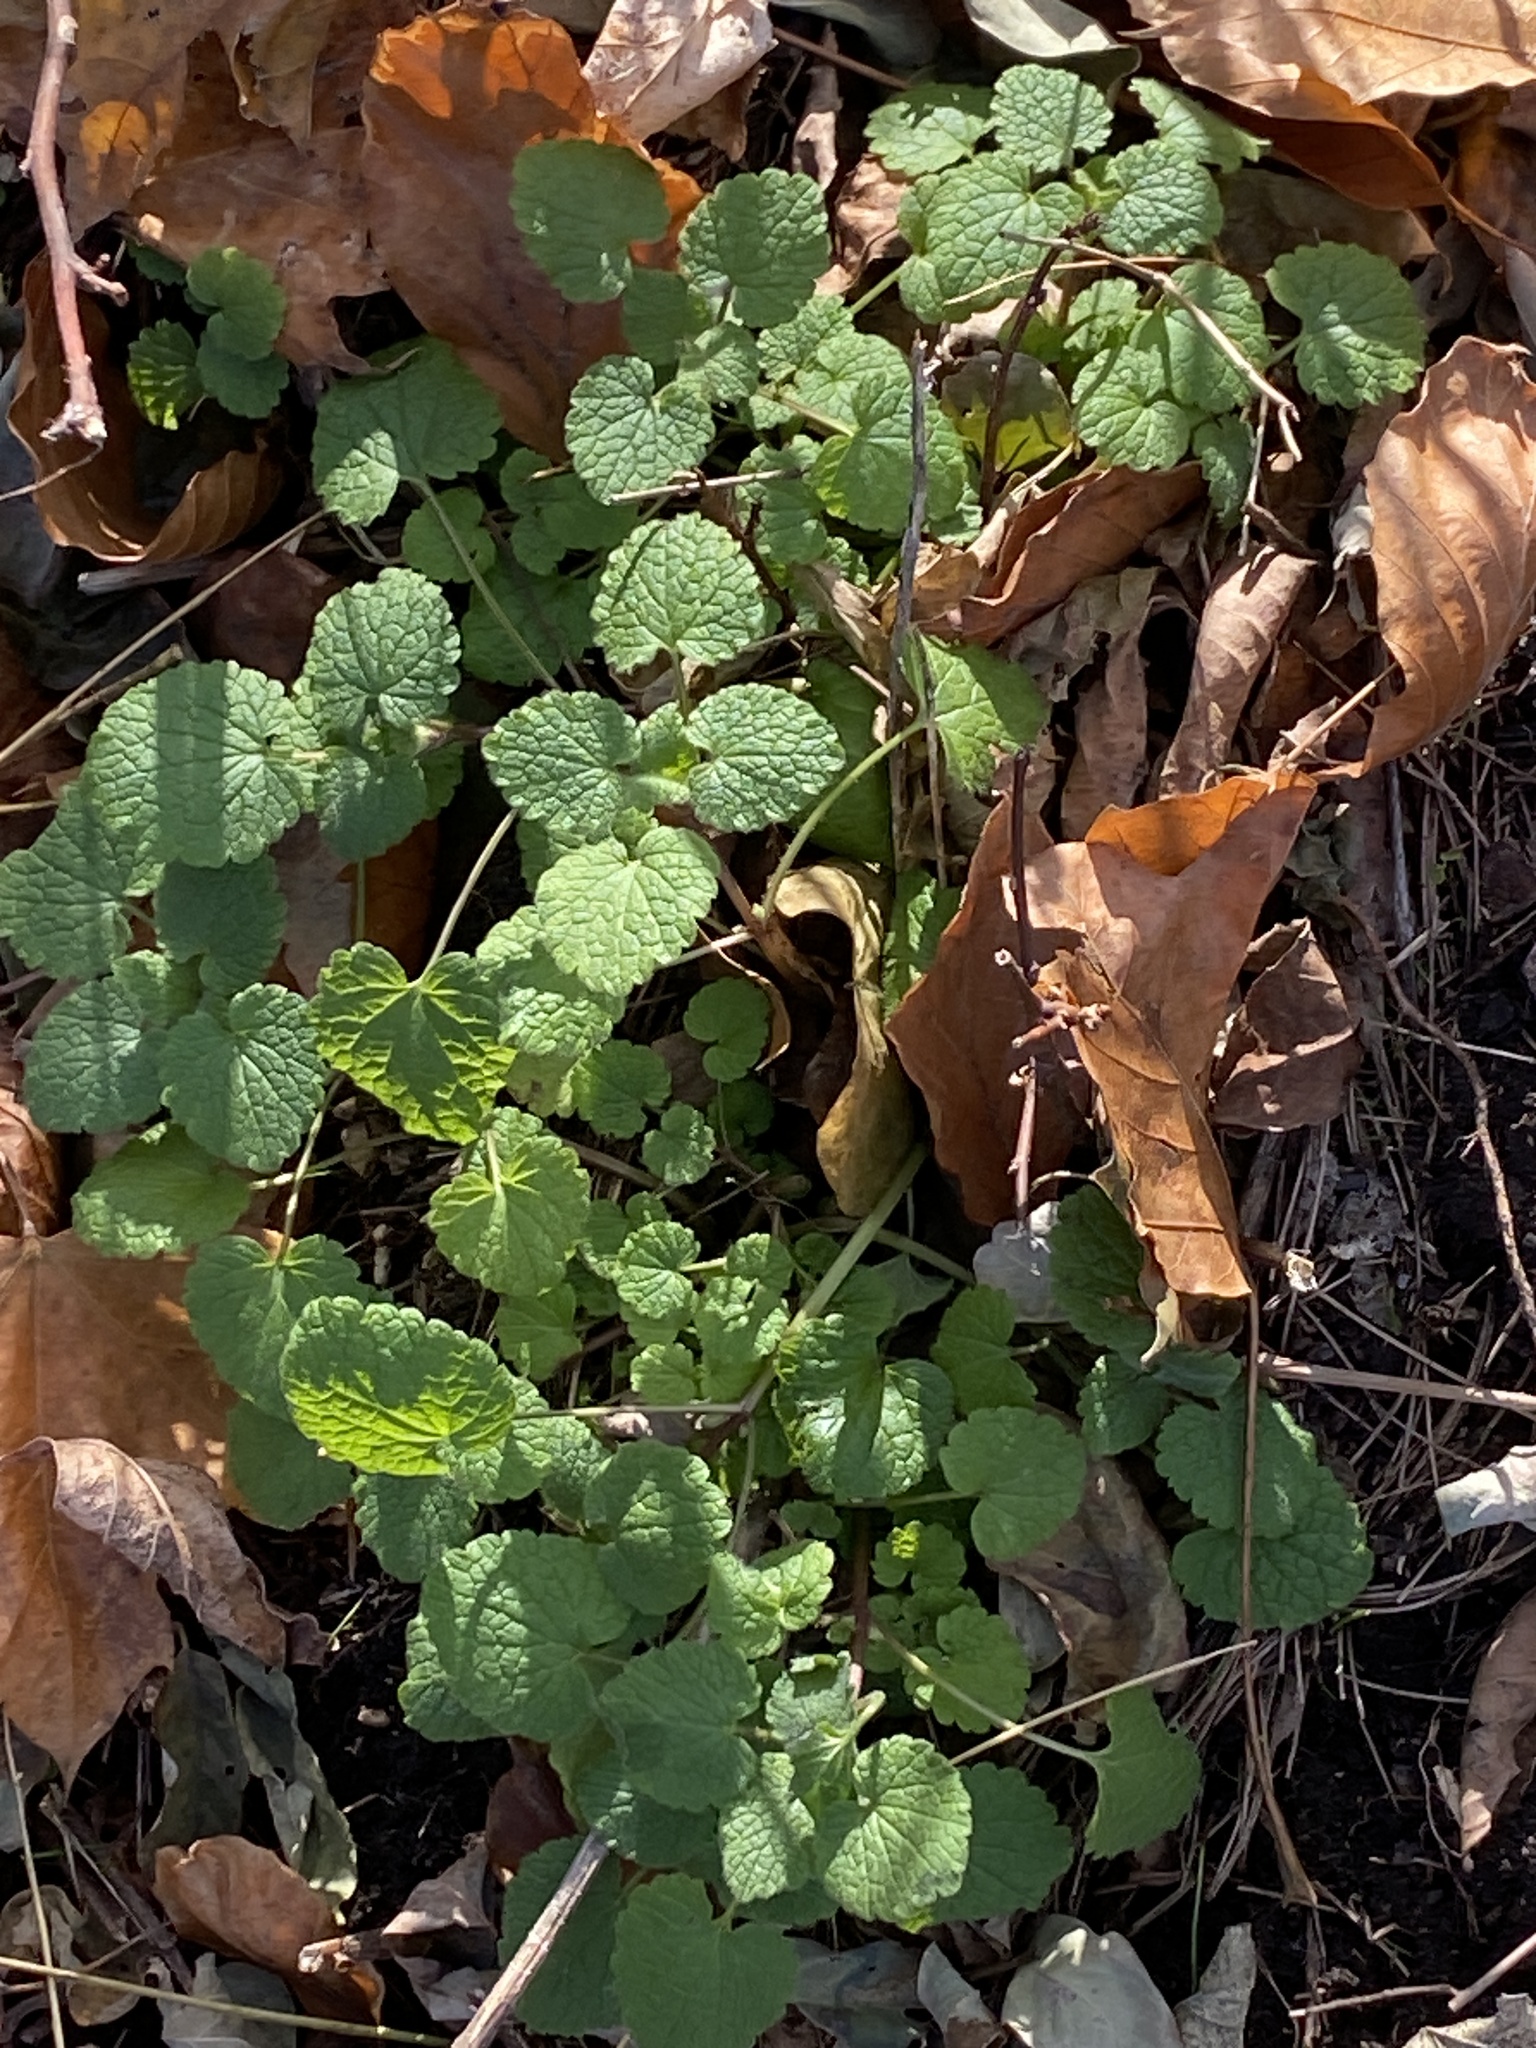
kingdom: Plantae
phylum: Tracheophyta
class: Magnoliopsida
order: Lamiales
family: Lamiaceae
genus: Lamium
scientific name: Lamium purpureum
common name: Red dead-nettle
